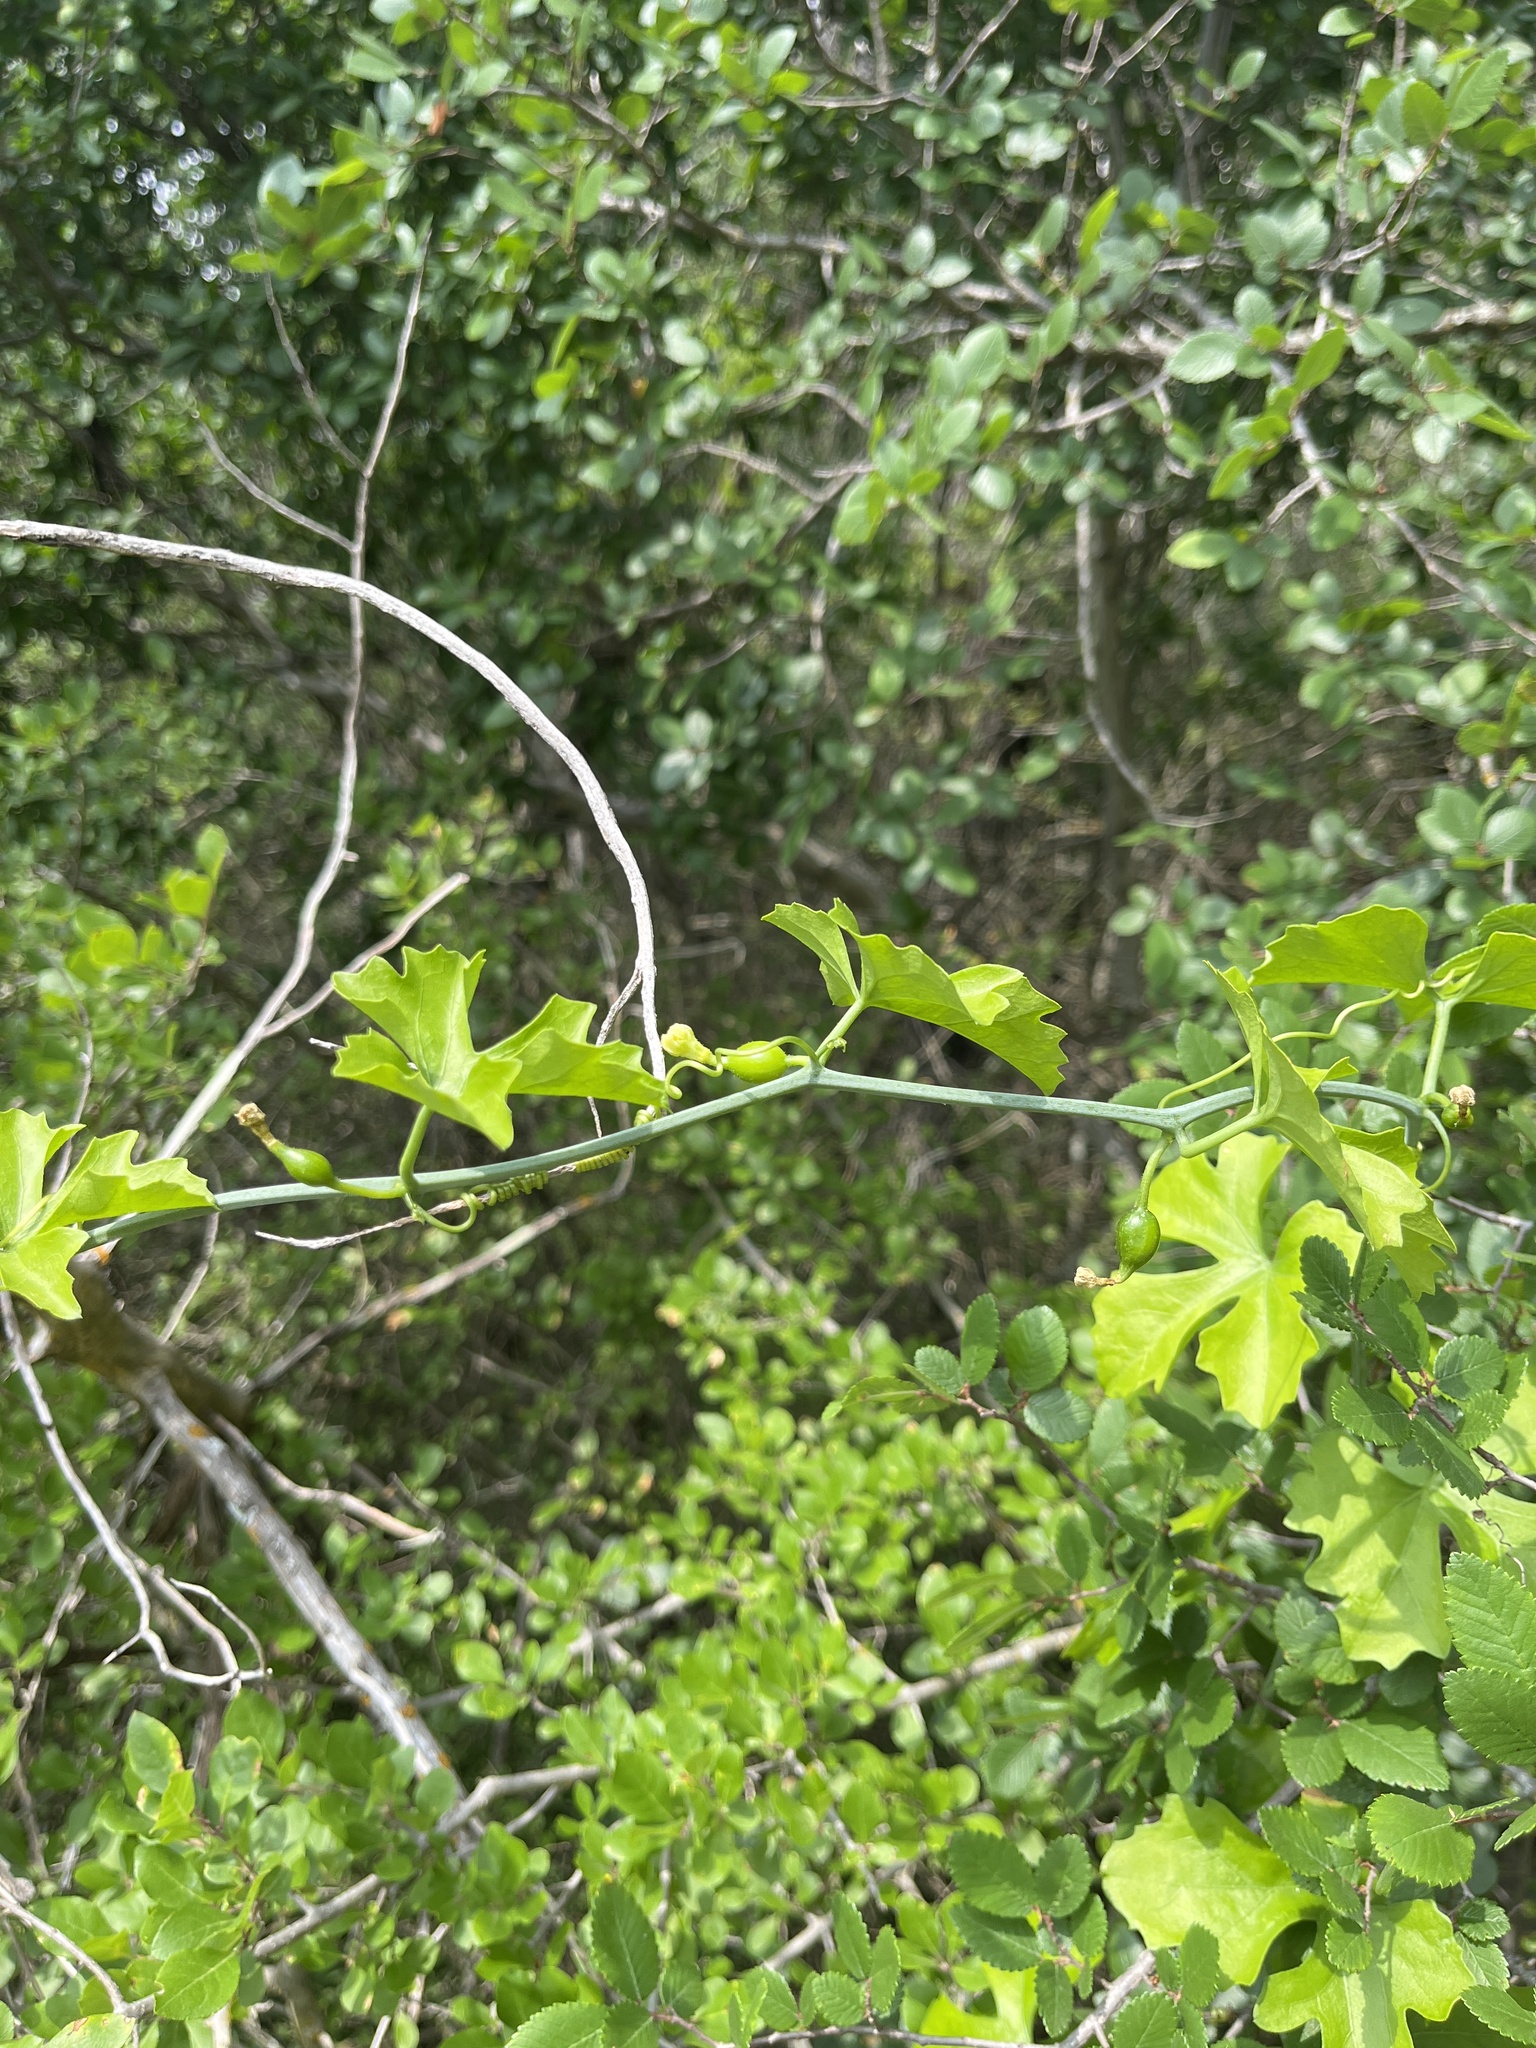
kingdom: Plantae
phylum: Tracheophyta
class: Magnoliopsida
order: Cucurbitales
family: Cucurbitaceae
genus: Ibervillea
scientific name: Ibervillea lindheimeri
